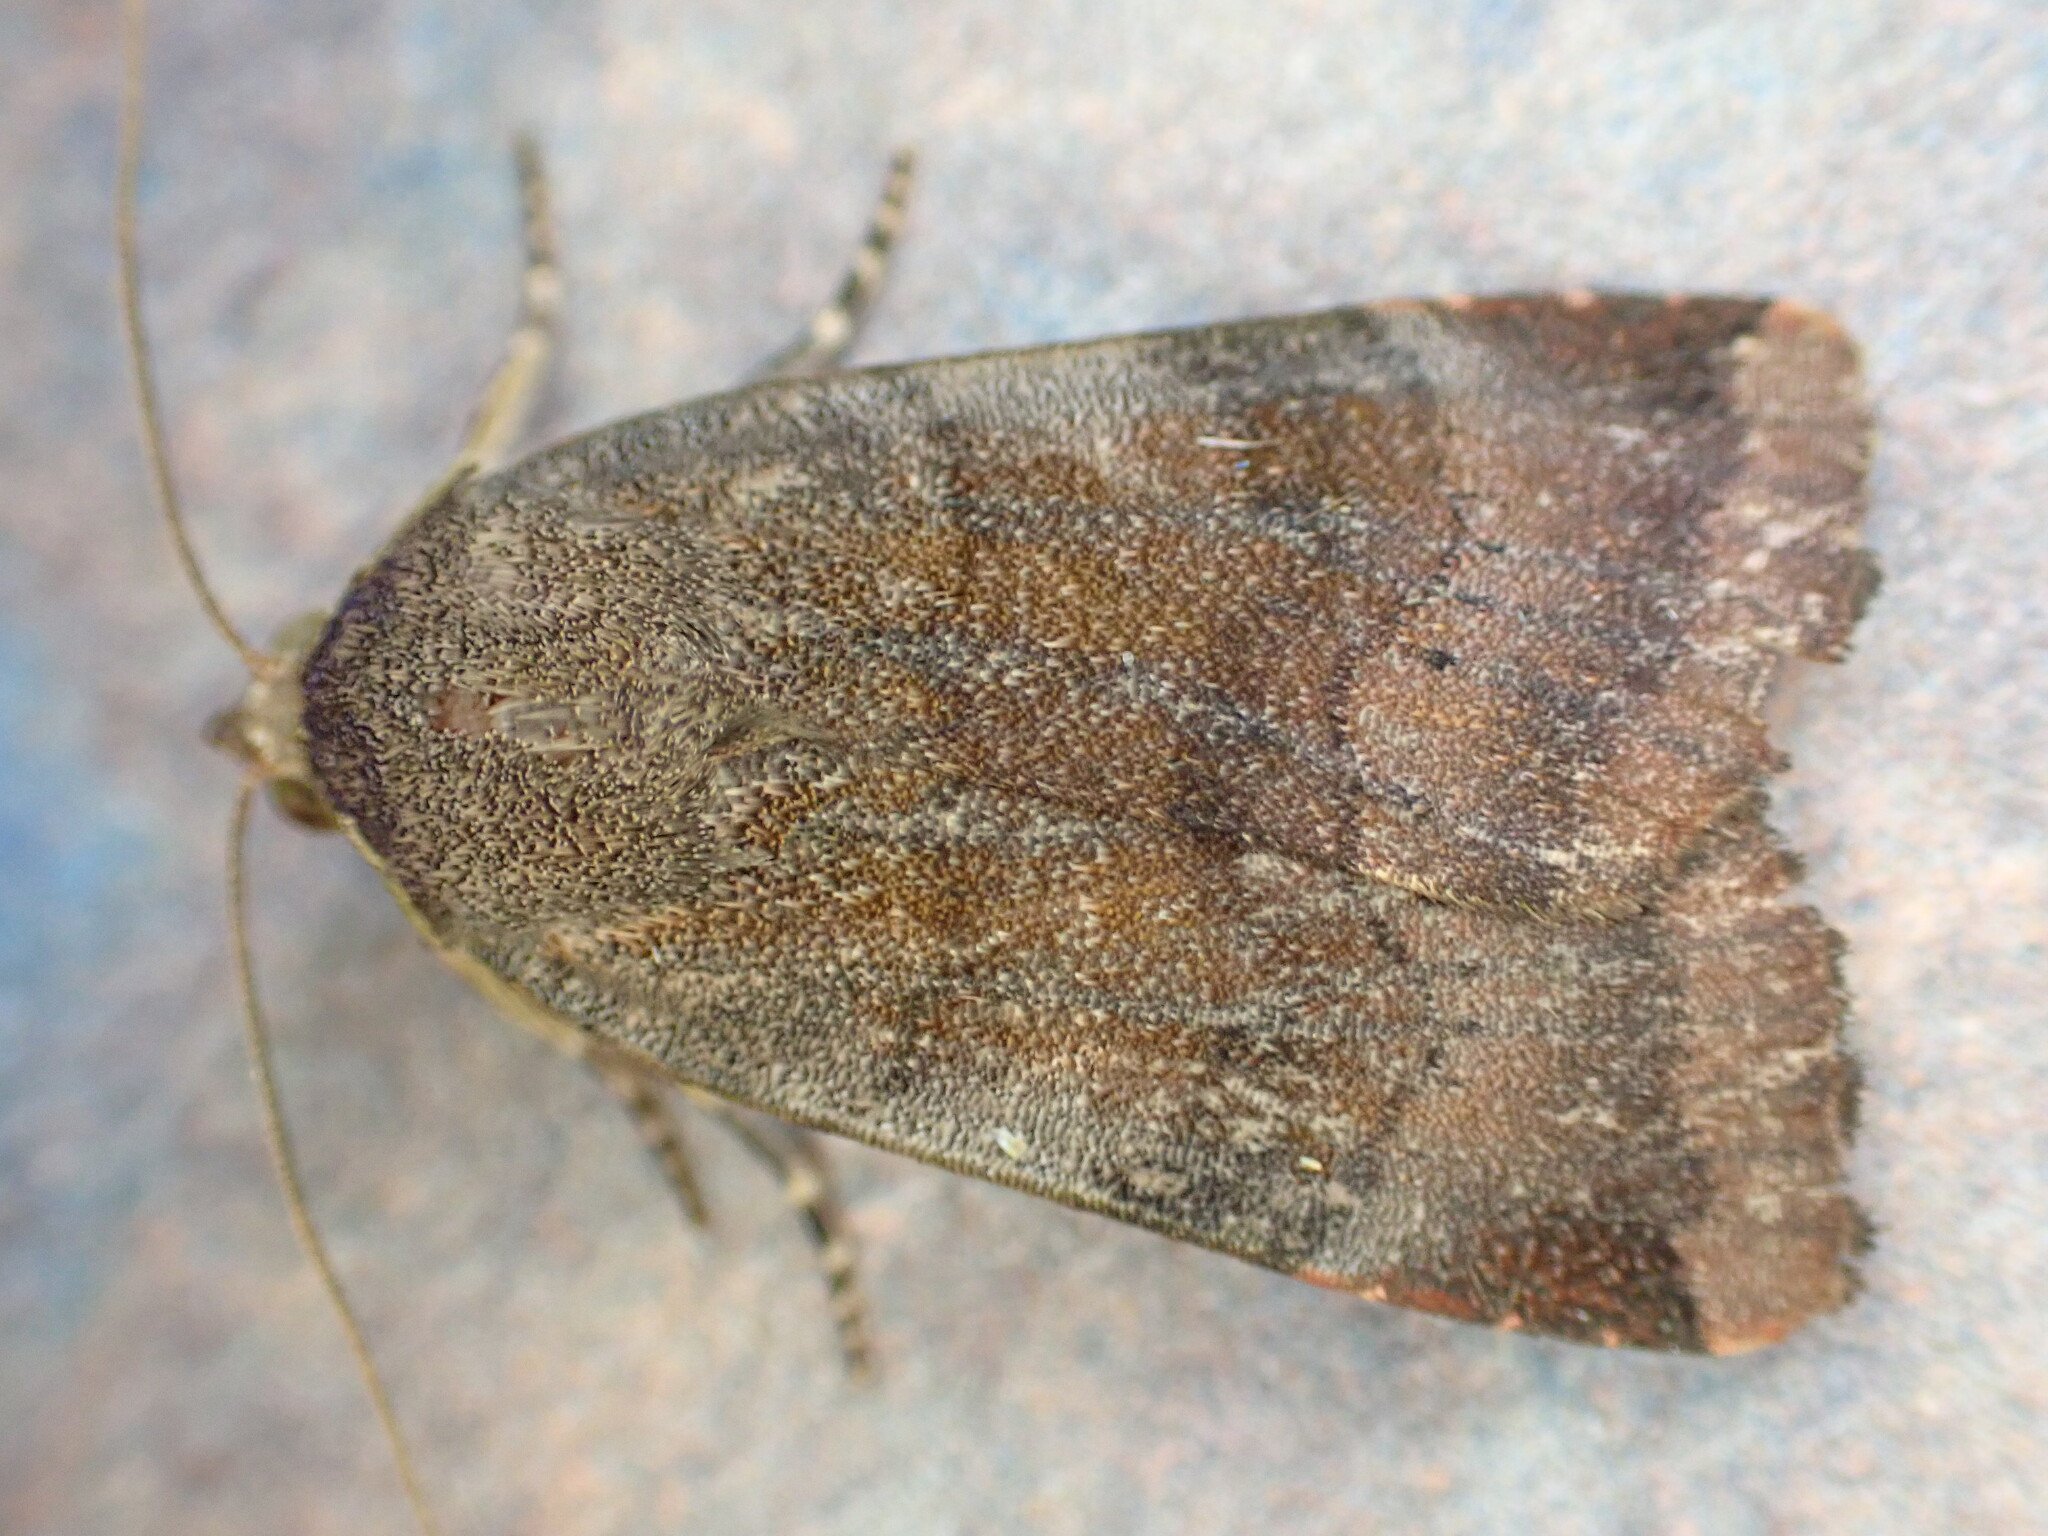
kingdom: Animalia
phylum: Arthropoda
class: Insecta
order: Lepidoptera
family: Noctuidae
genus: Noctua
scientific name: Noctua janthe
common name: Lesser broad-bordered yellow underwing
